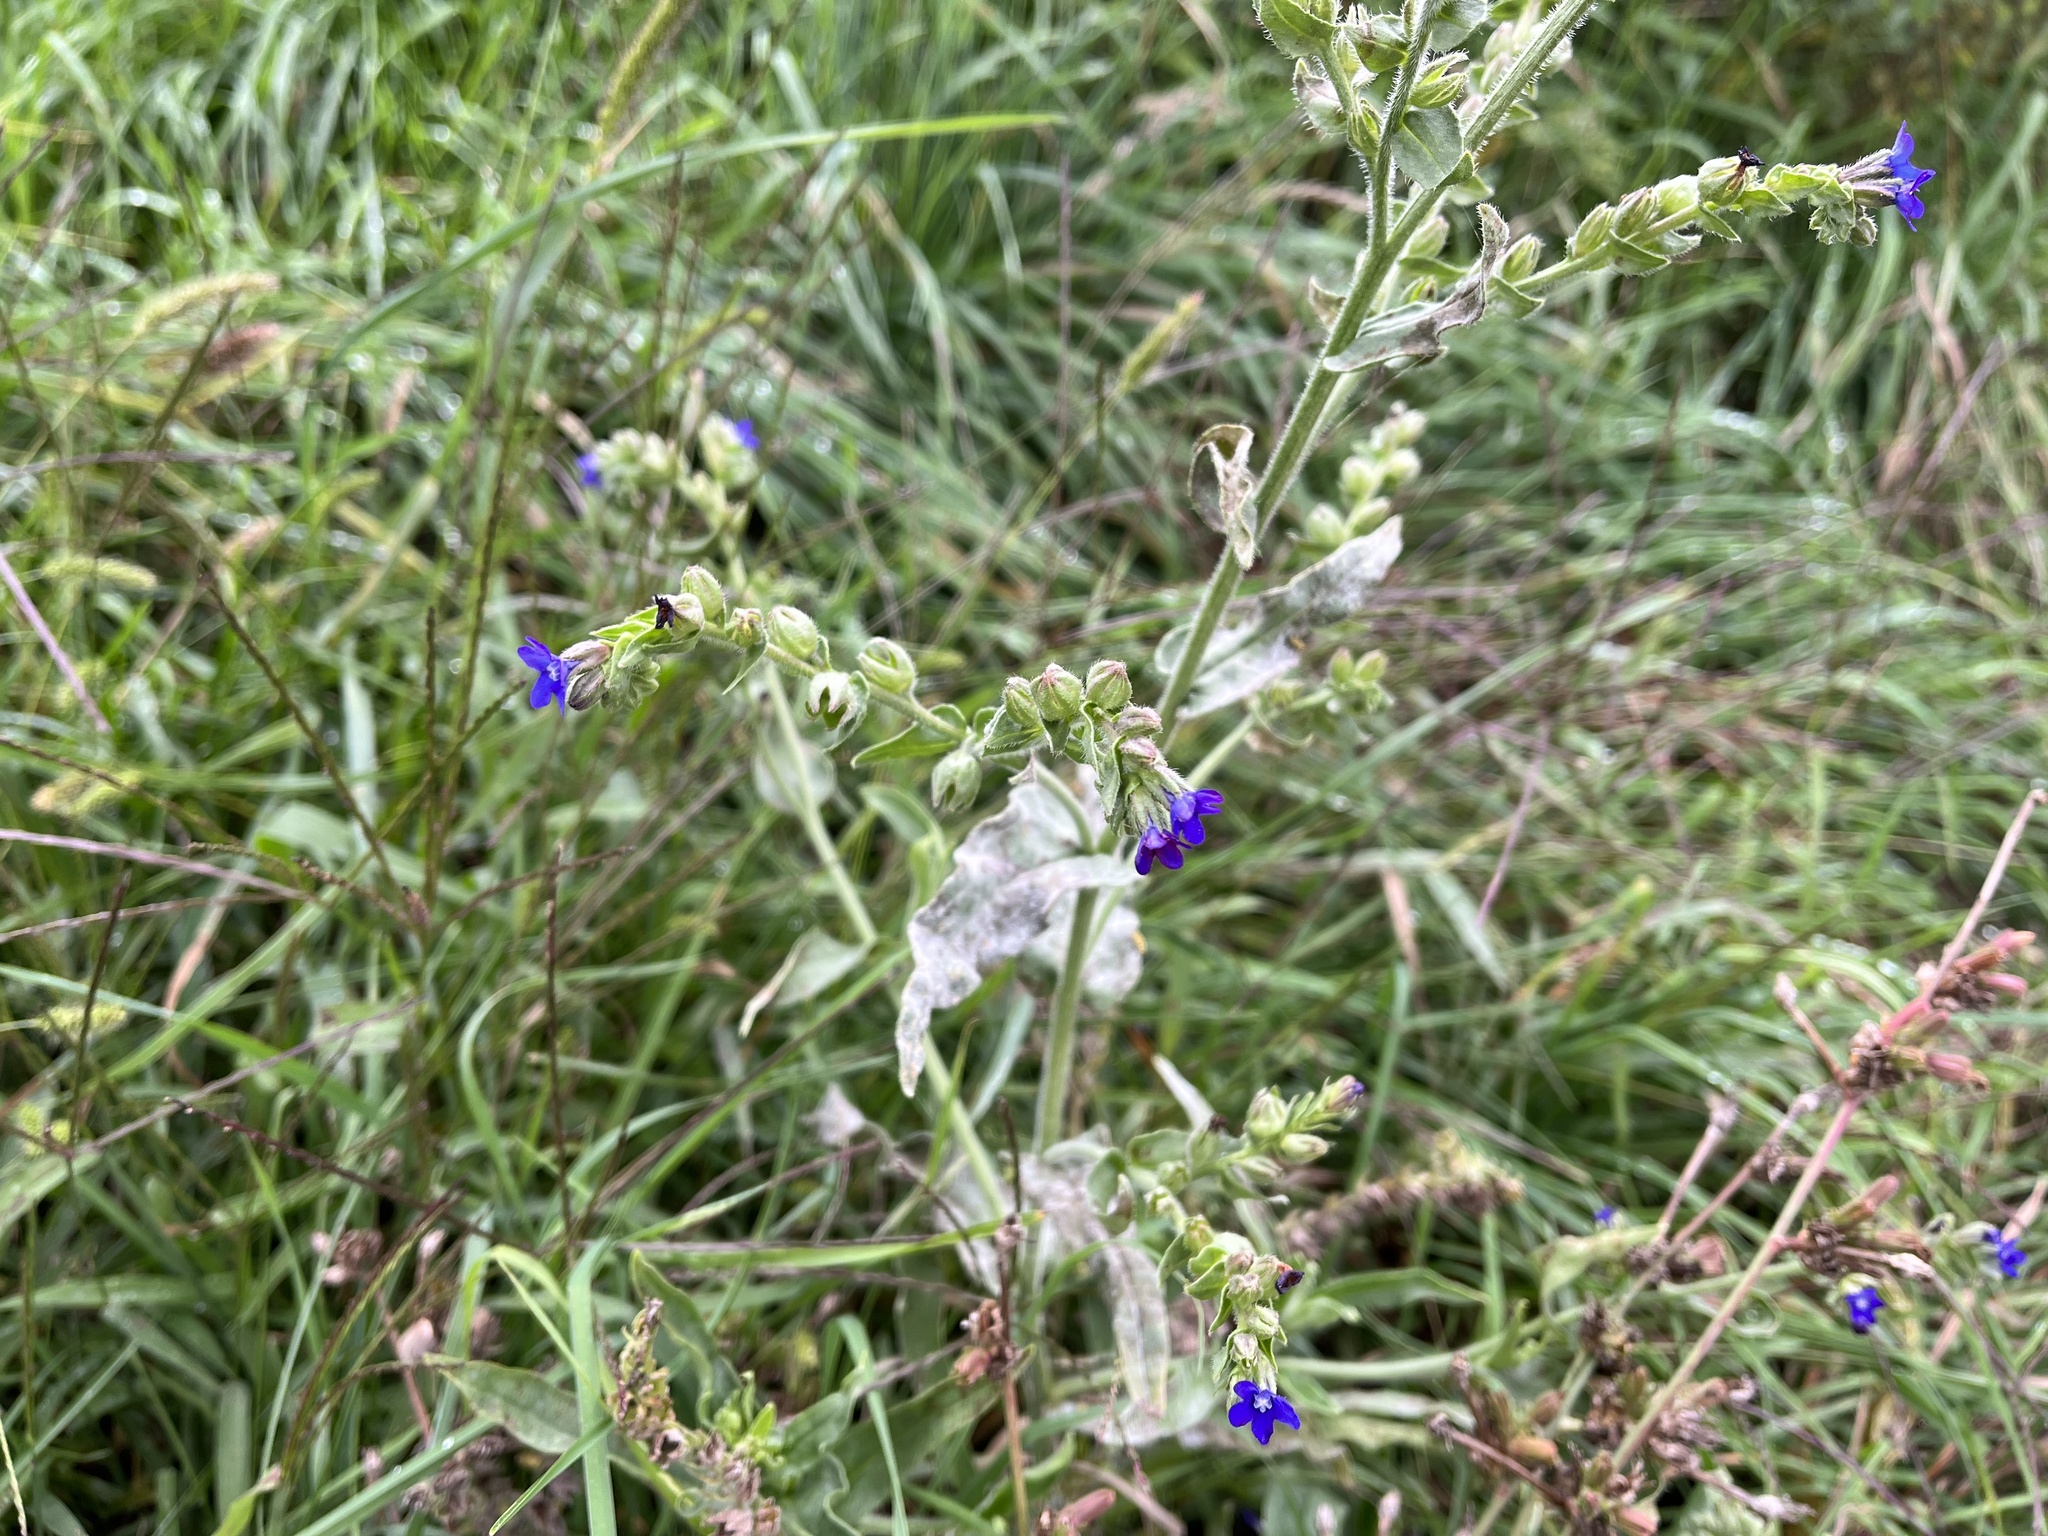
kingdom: Plantae
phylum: Tracheophyta
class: Magnoliopsida
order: Boraginales
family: Boraginaceae
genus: Anchusa
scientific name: Anchusa officinalis
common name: Alkanet
